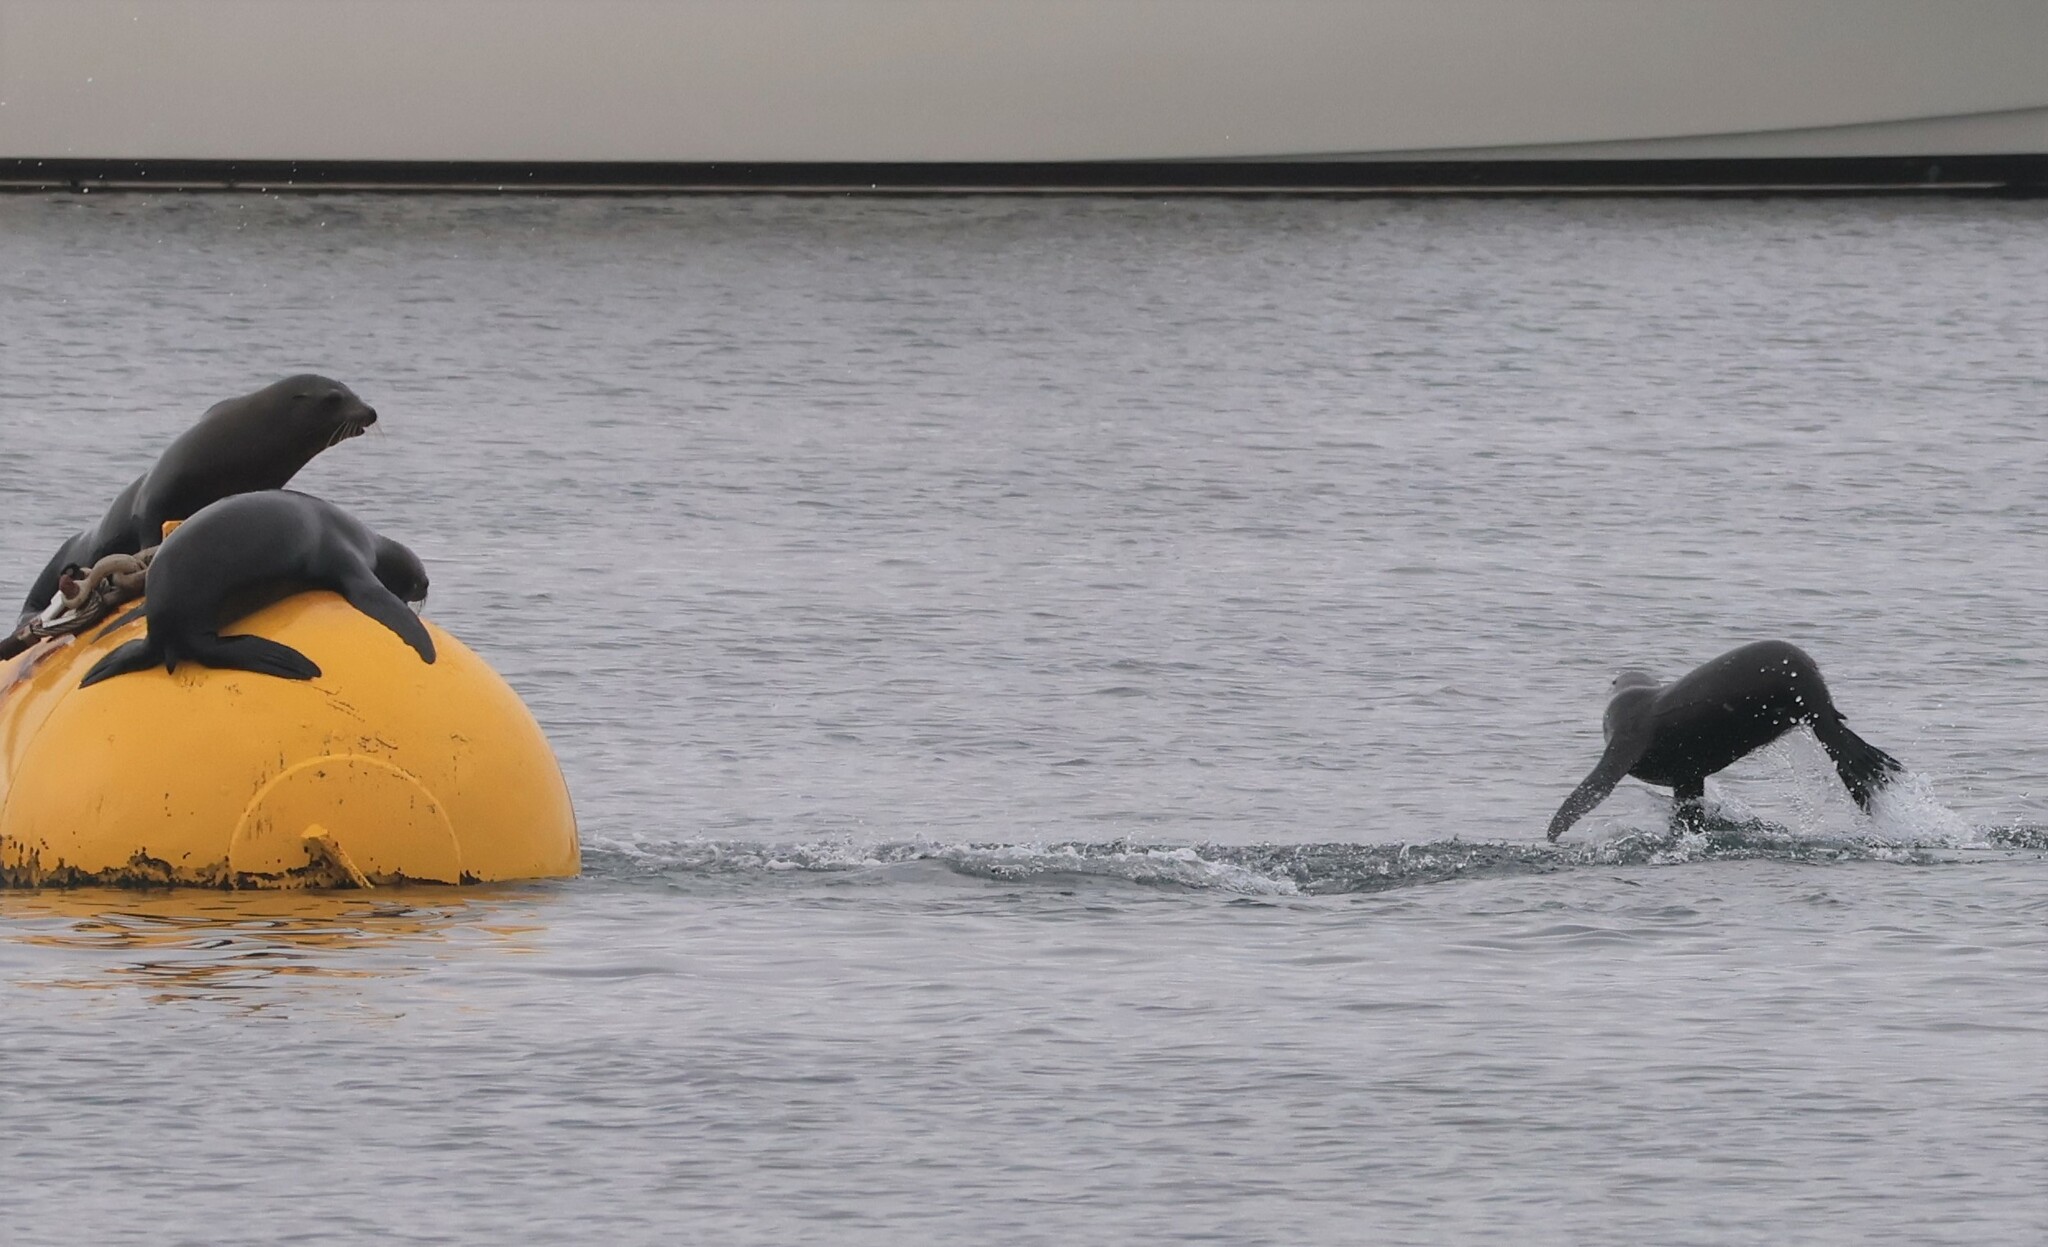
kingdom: Animalia
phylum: Chordata
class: Mammalia
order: Carnivora
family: Otariidae
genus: Zalophus
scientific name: Zalophus californianus
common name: California sea lion
